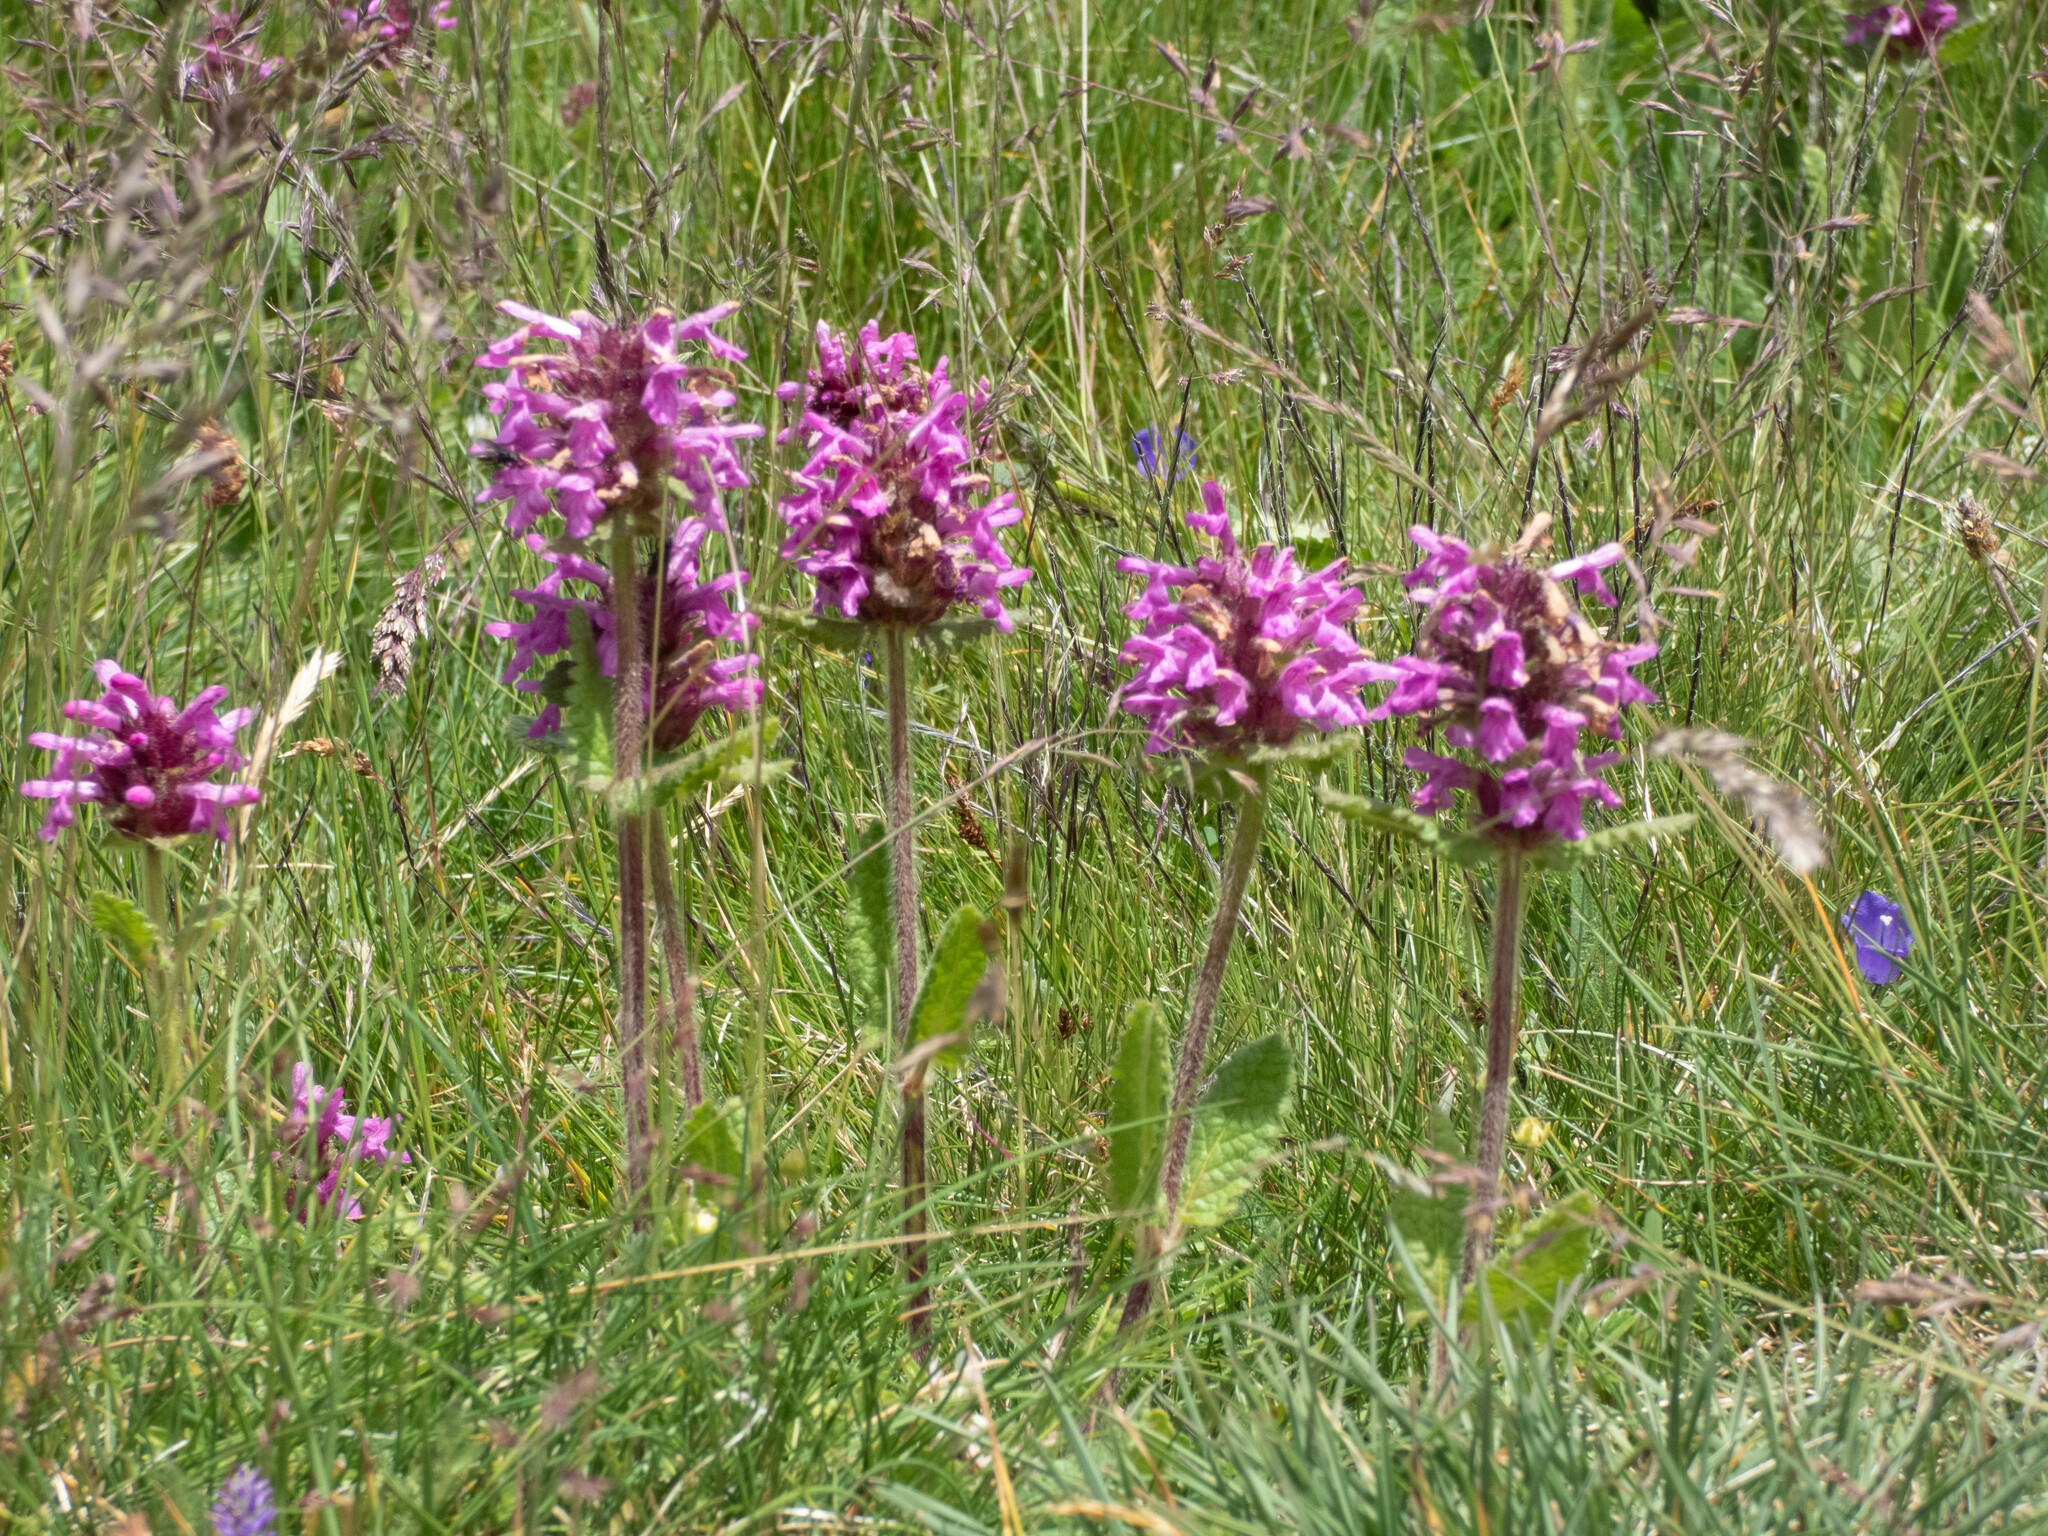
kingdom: Plantae
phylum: Tracheophyta
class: Magnoliopsida
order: Lamiales
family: Lamiaceae
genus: Betonica
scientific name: Betonica officinalis
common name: Bishop's-wort
